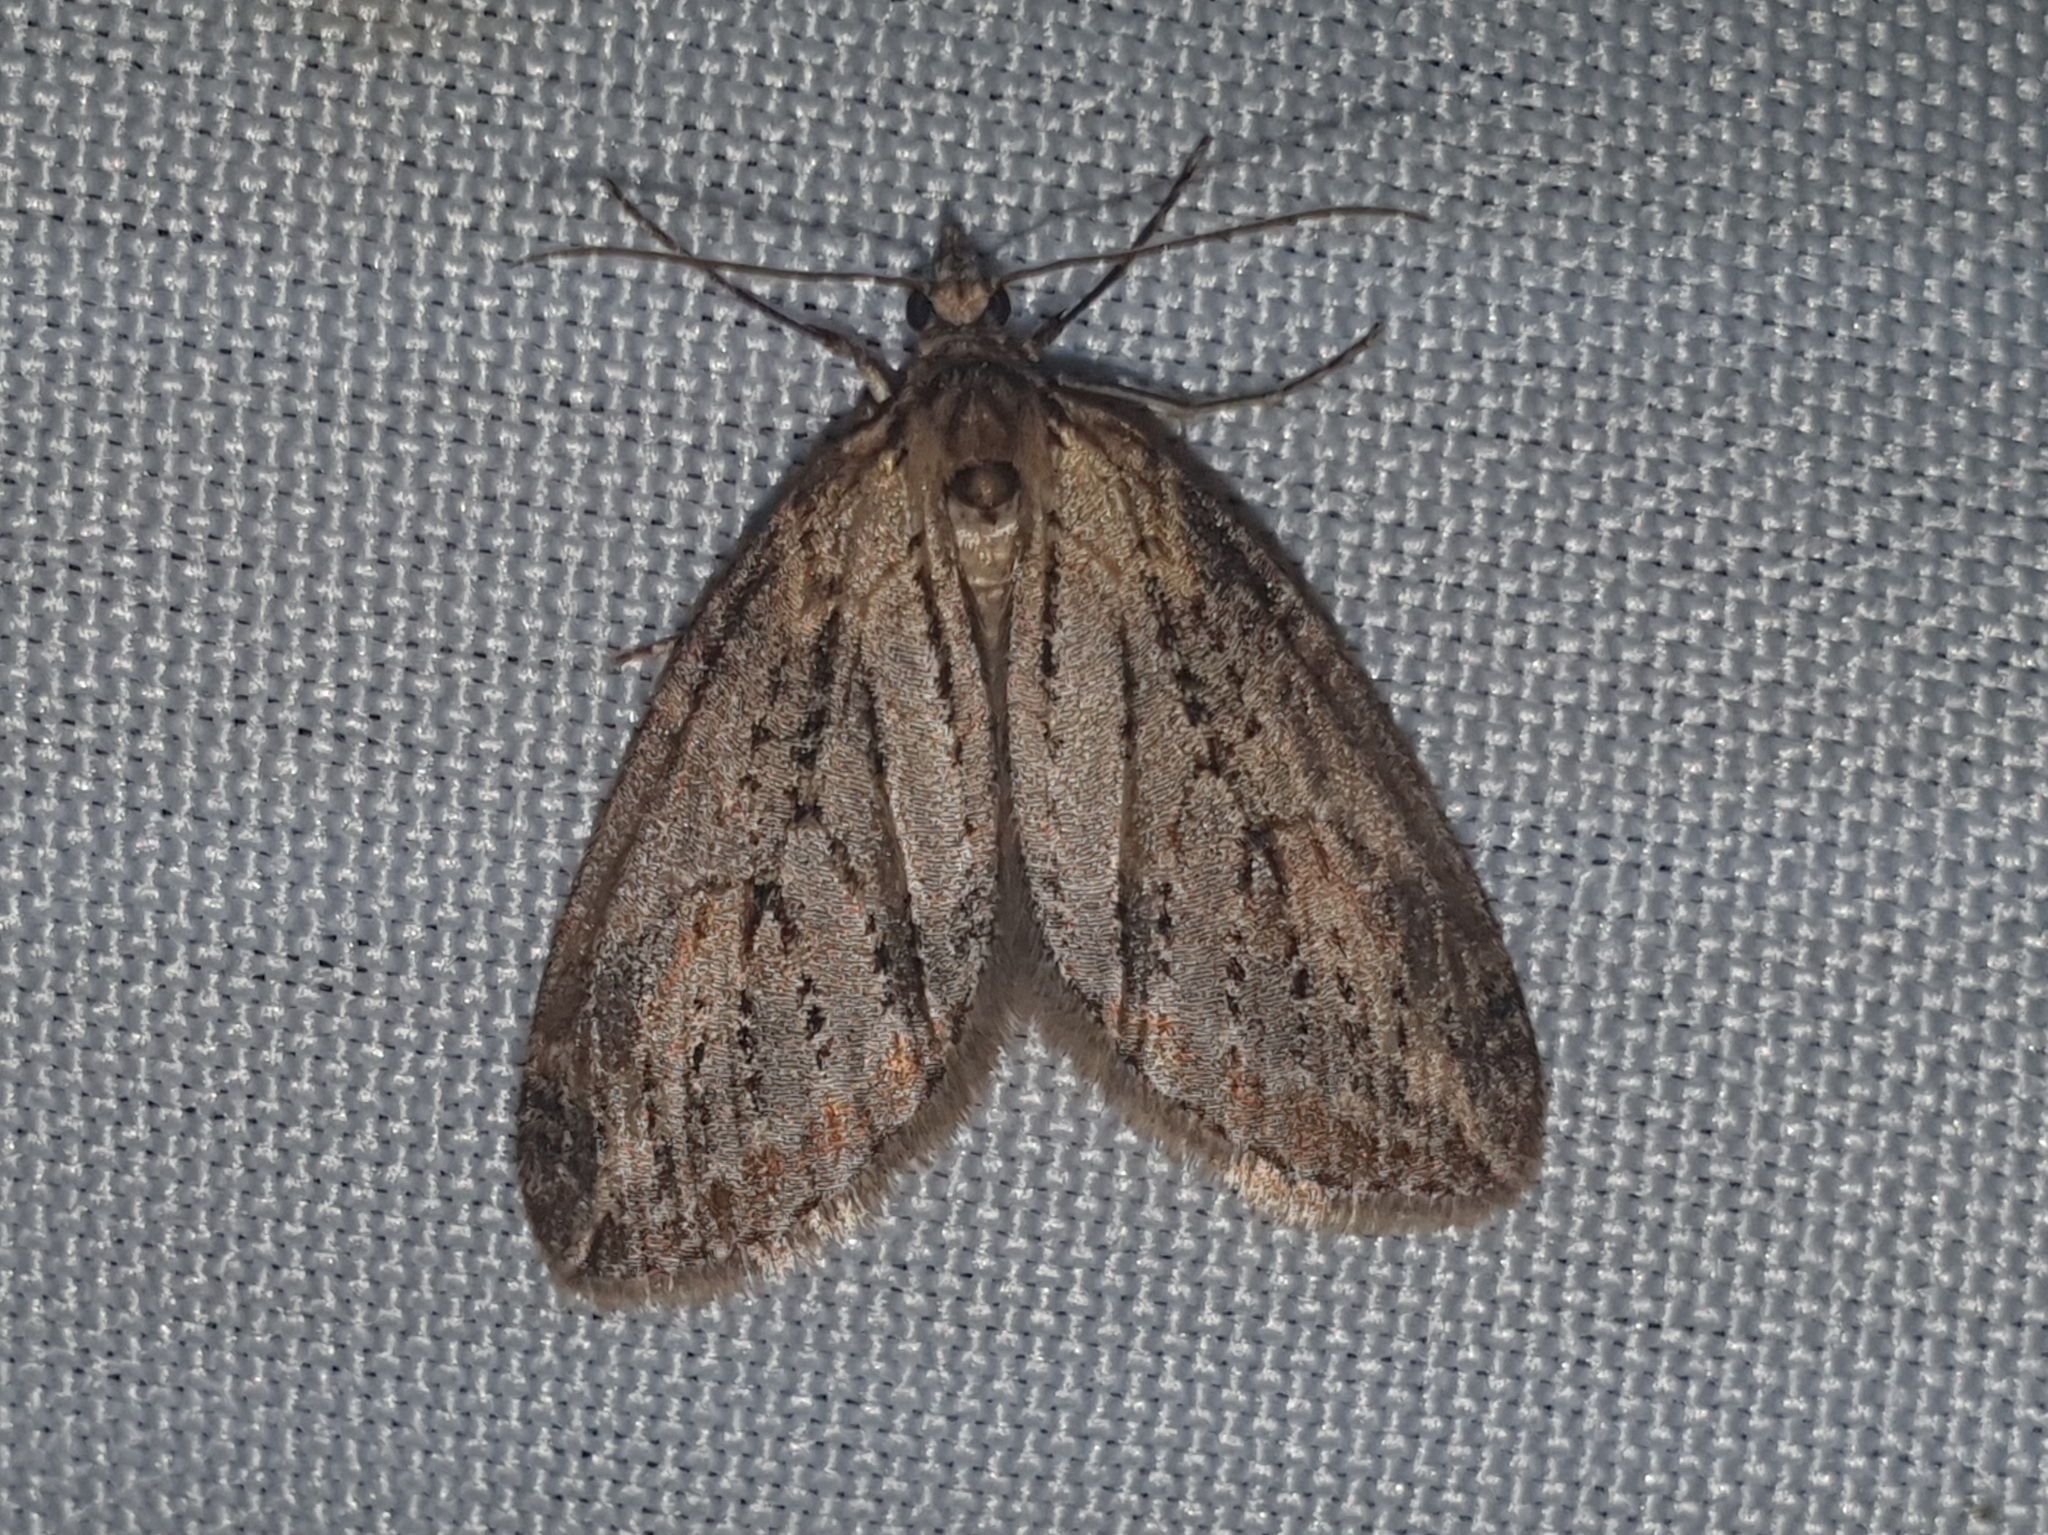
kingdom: Animalia
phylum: Arthropoda
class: Insecta
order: Lepidoptera
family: Geometridae
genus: Chesias
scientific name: Chesias isabella
